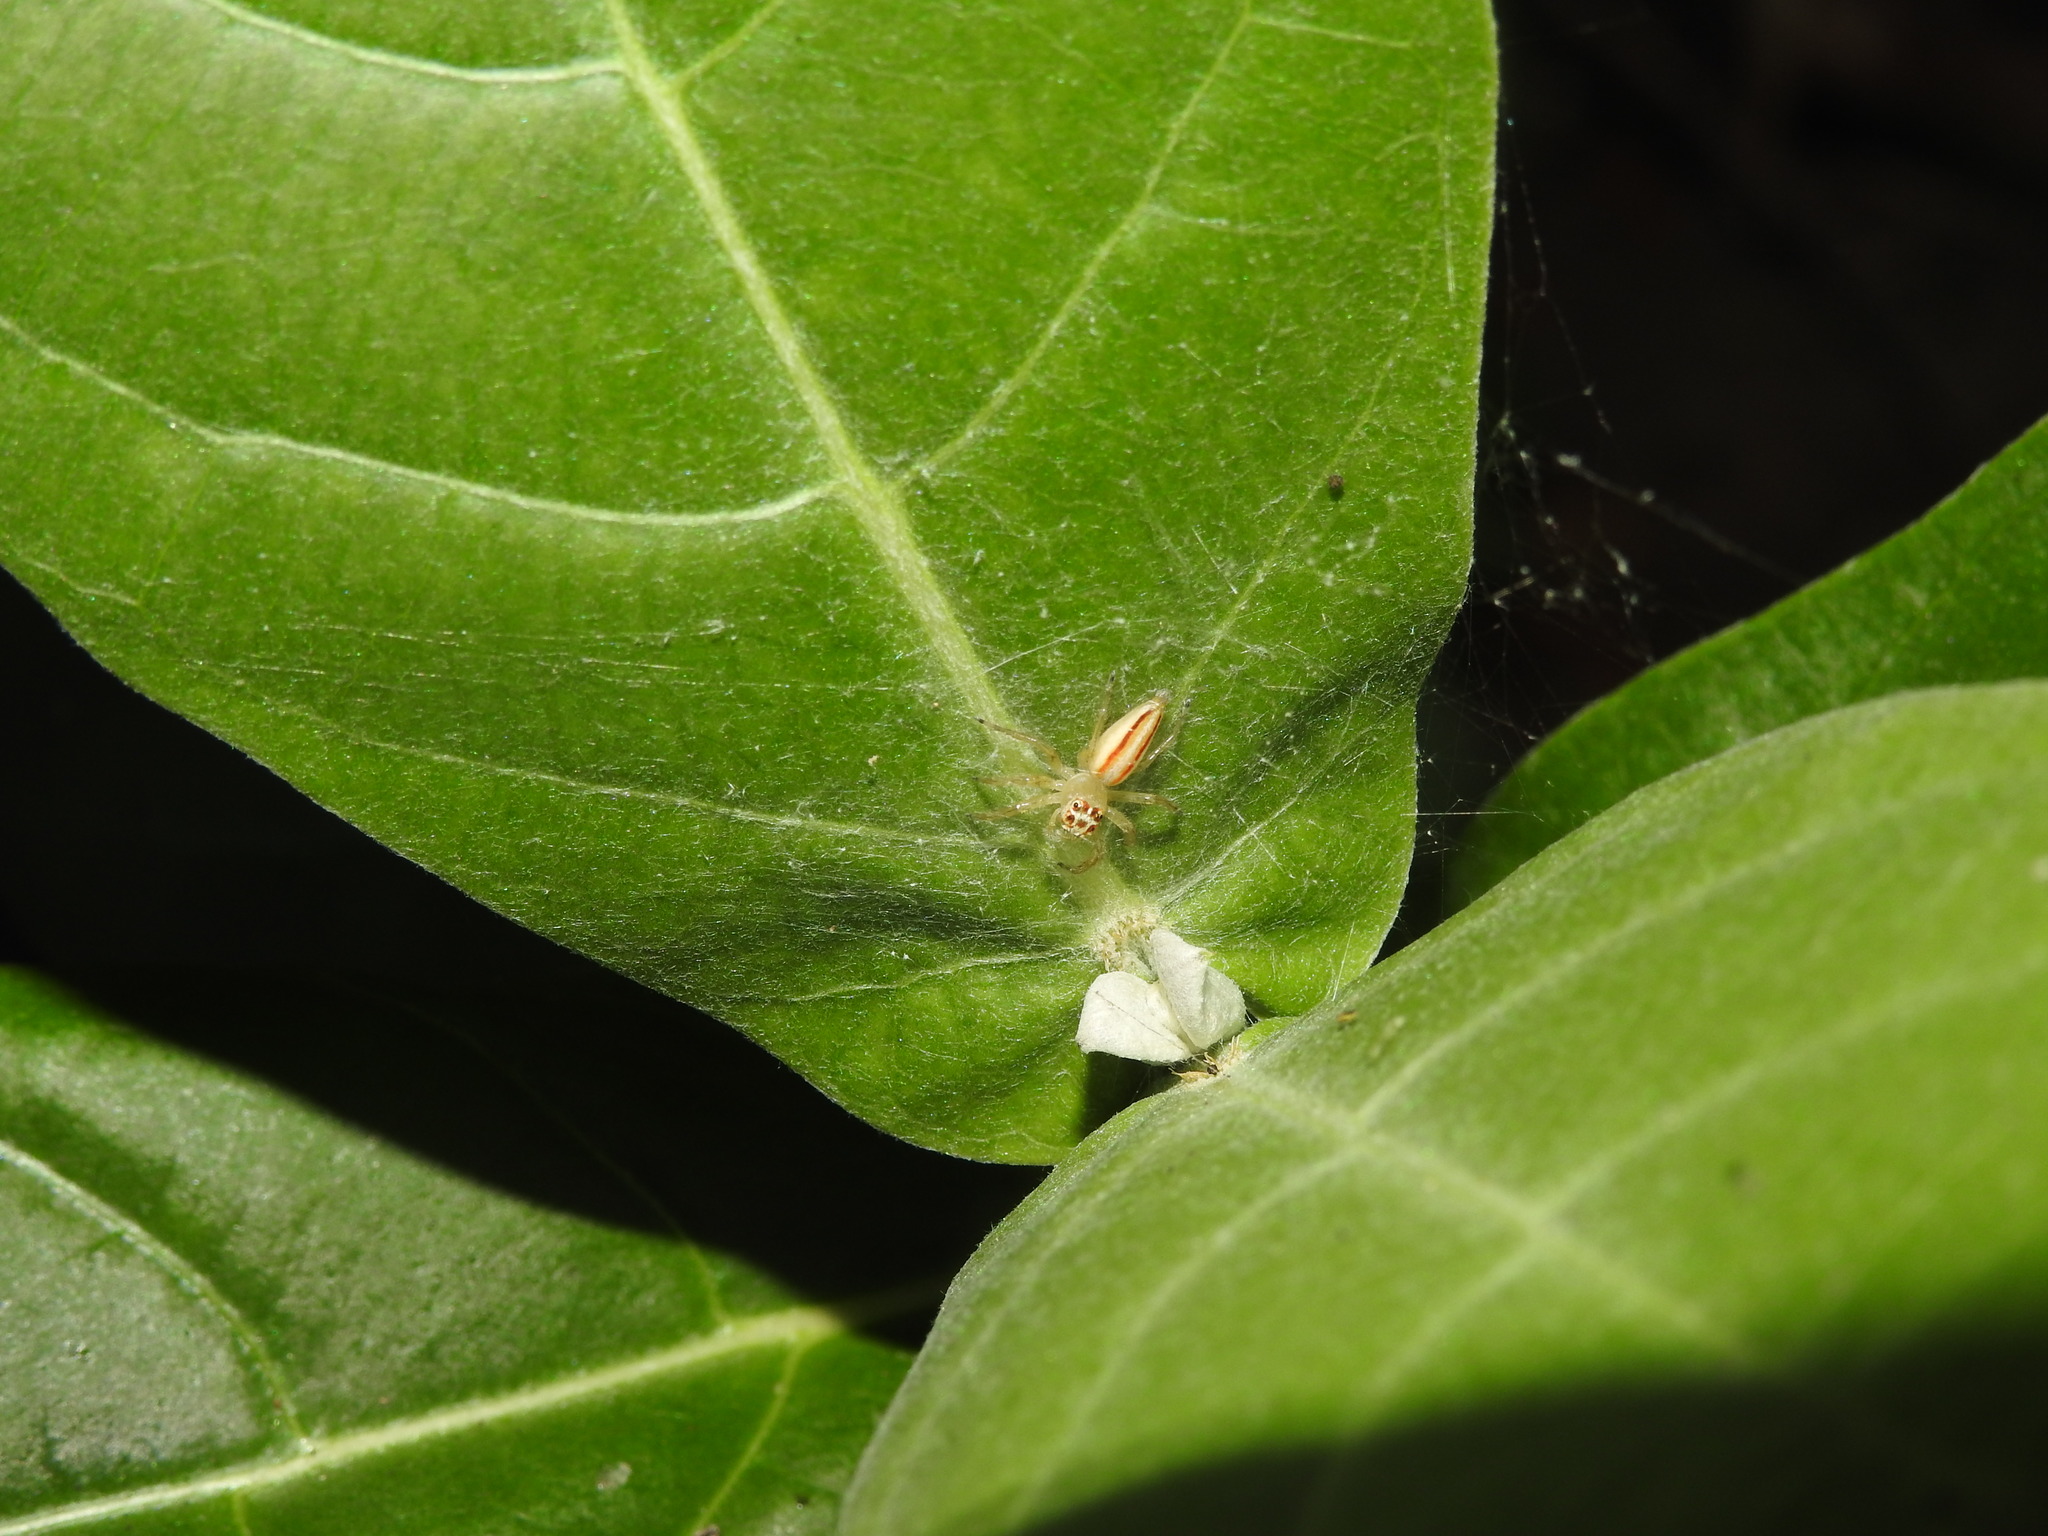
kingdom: Animalia
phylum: Arthropoda
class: Arachnida
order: Araneae
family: Salticidae
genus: Telamonia
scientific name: Telamonia dimidiata
